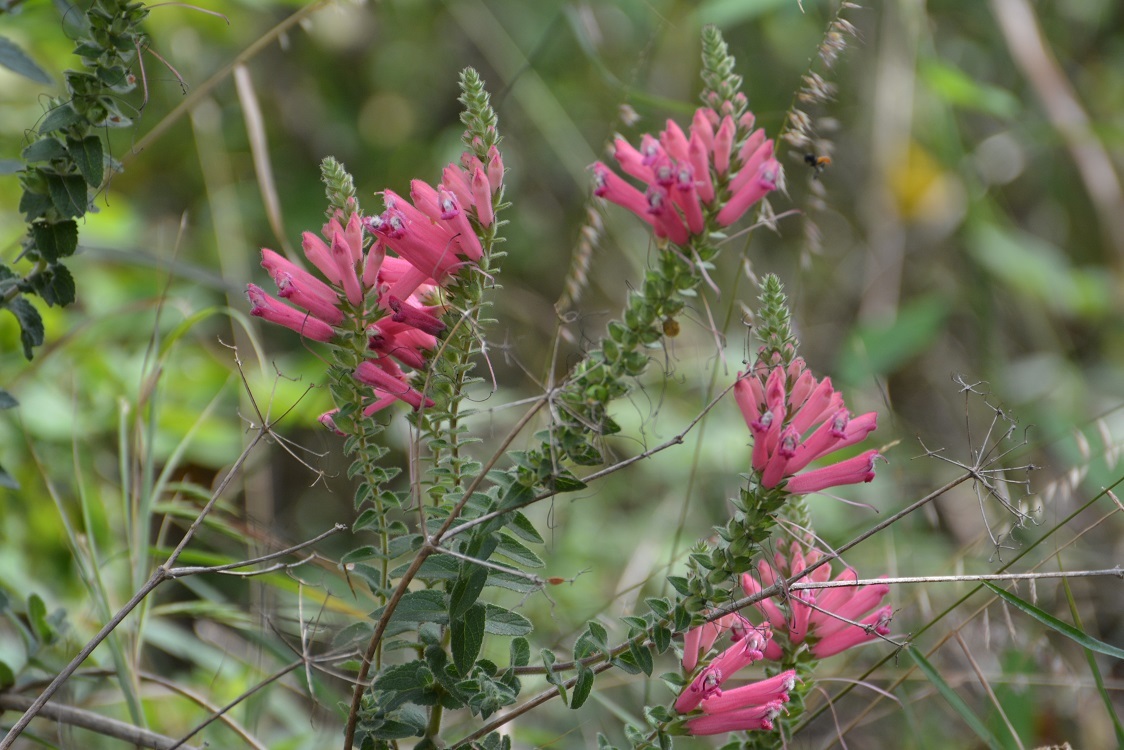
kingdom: Plantae
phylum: Tracheophyta
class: Magnoliopsida
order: Lamiales
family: Orobanchaceae
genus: Lamourouxia
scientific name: Lamourouxia viscosa
